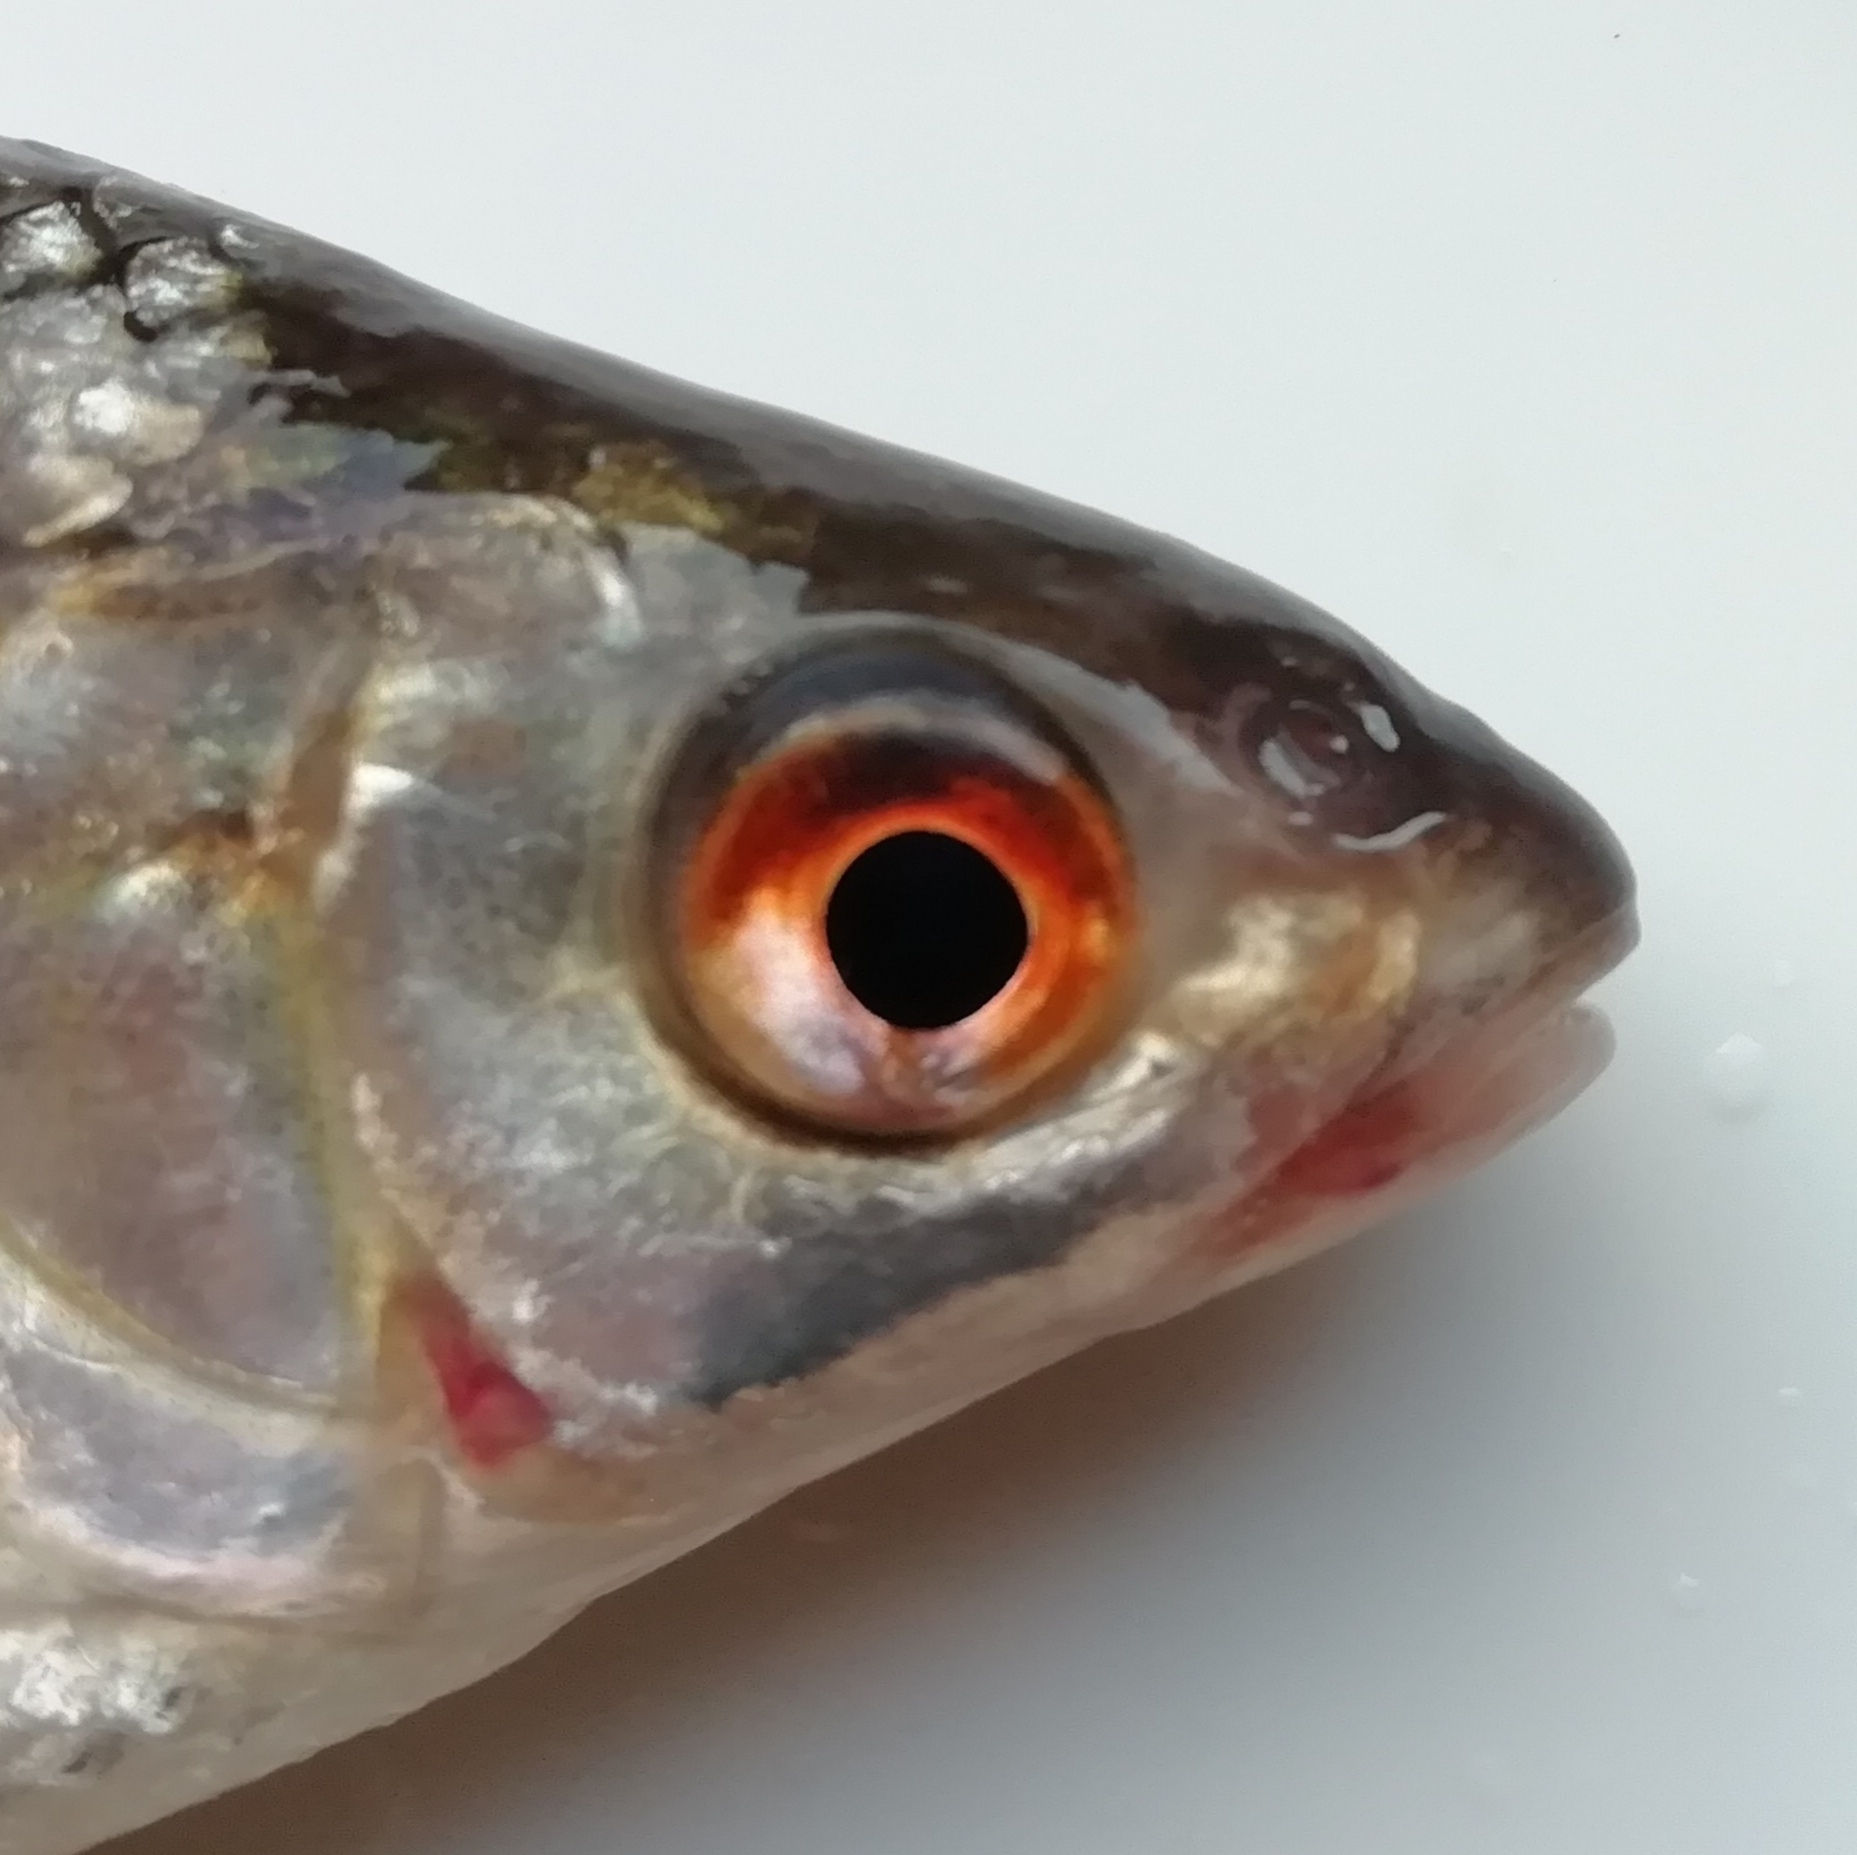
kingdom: Animalia
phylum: Chordata
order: Cypriniformes
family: Cyprinidae
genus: Rutilus
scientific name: Rutilus rutilus
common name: Roach
